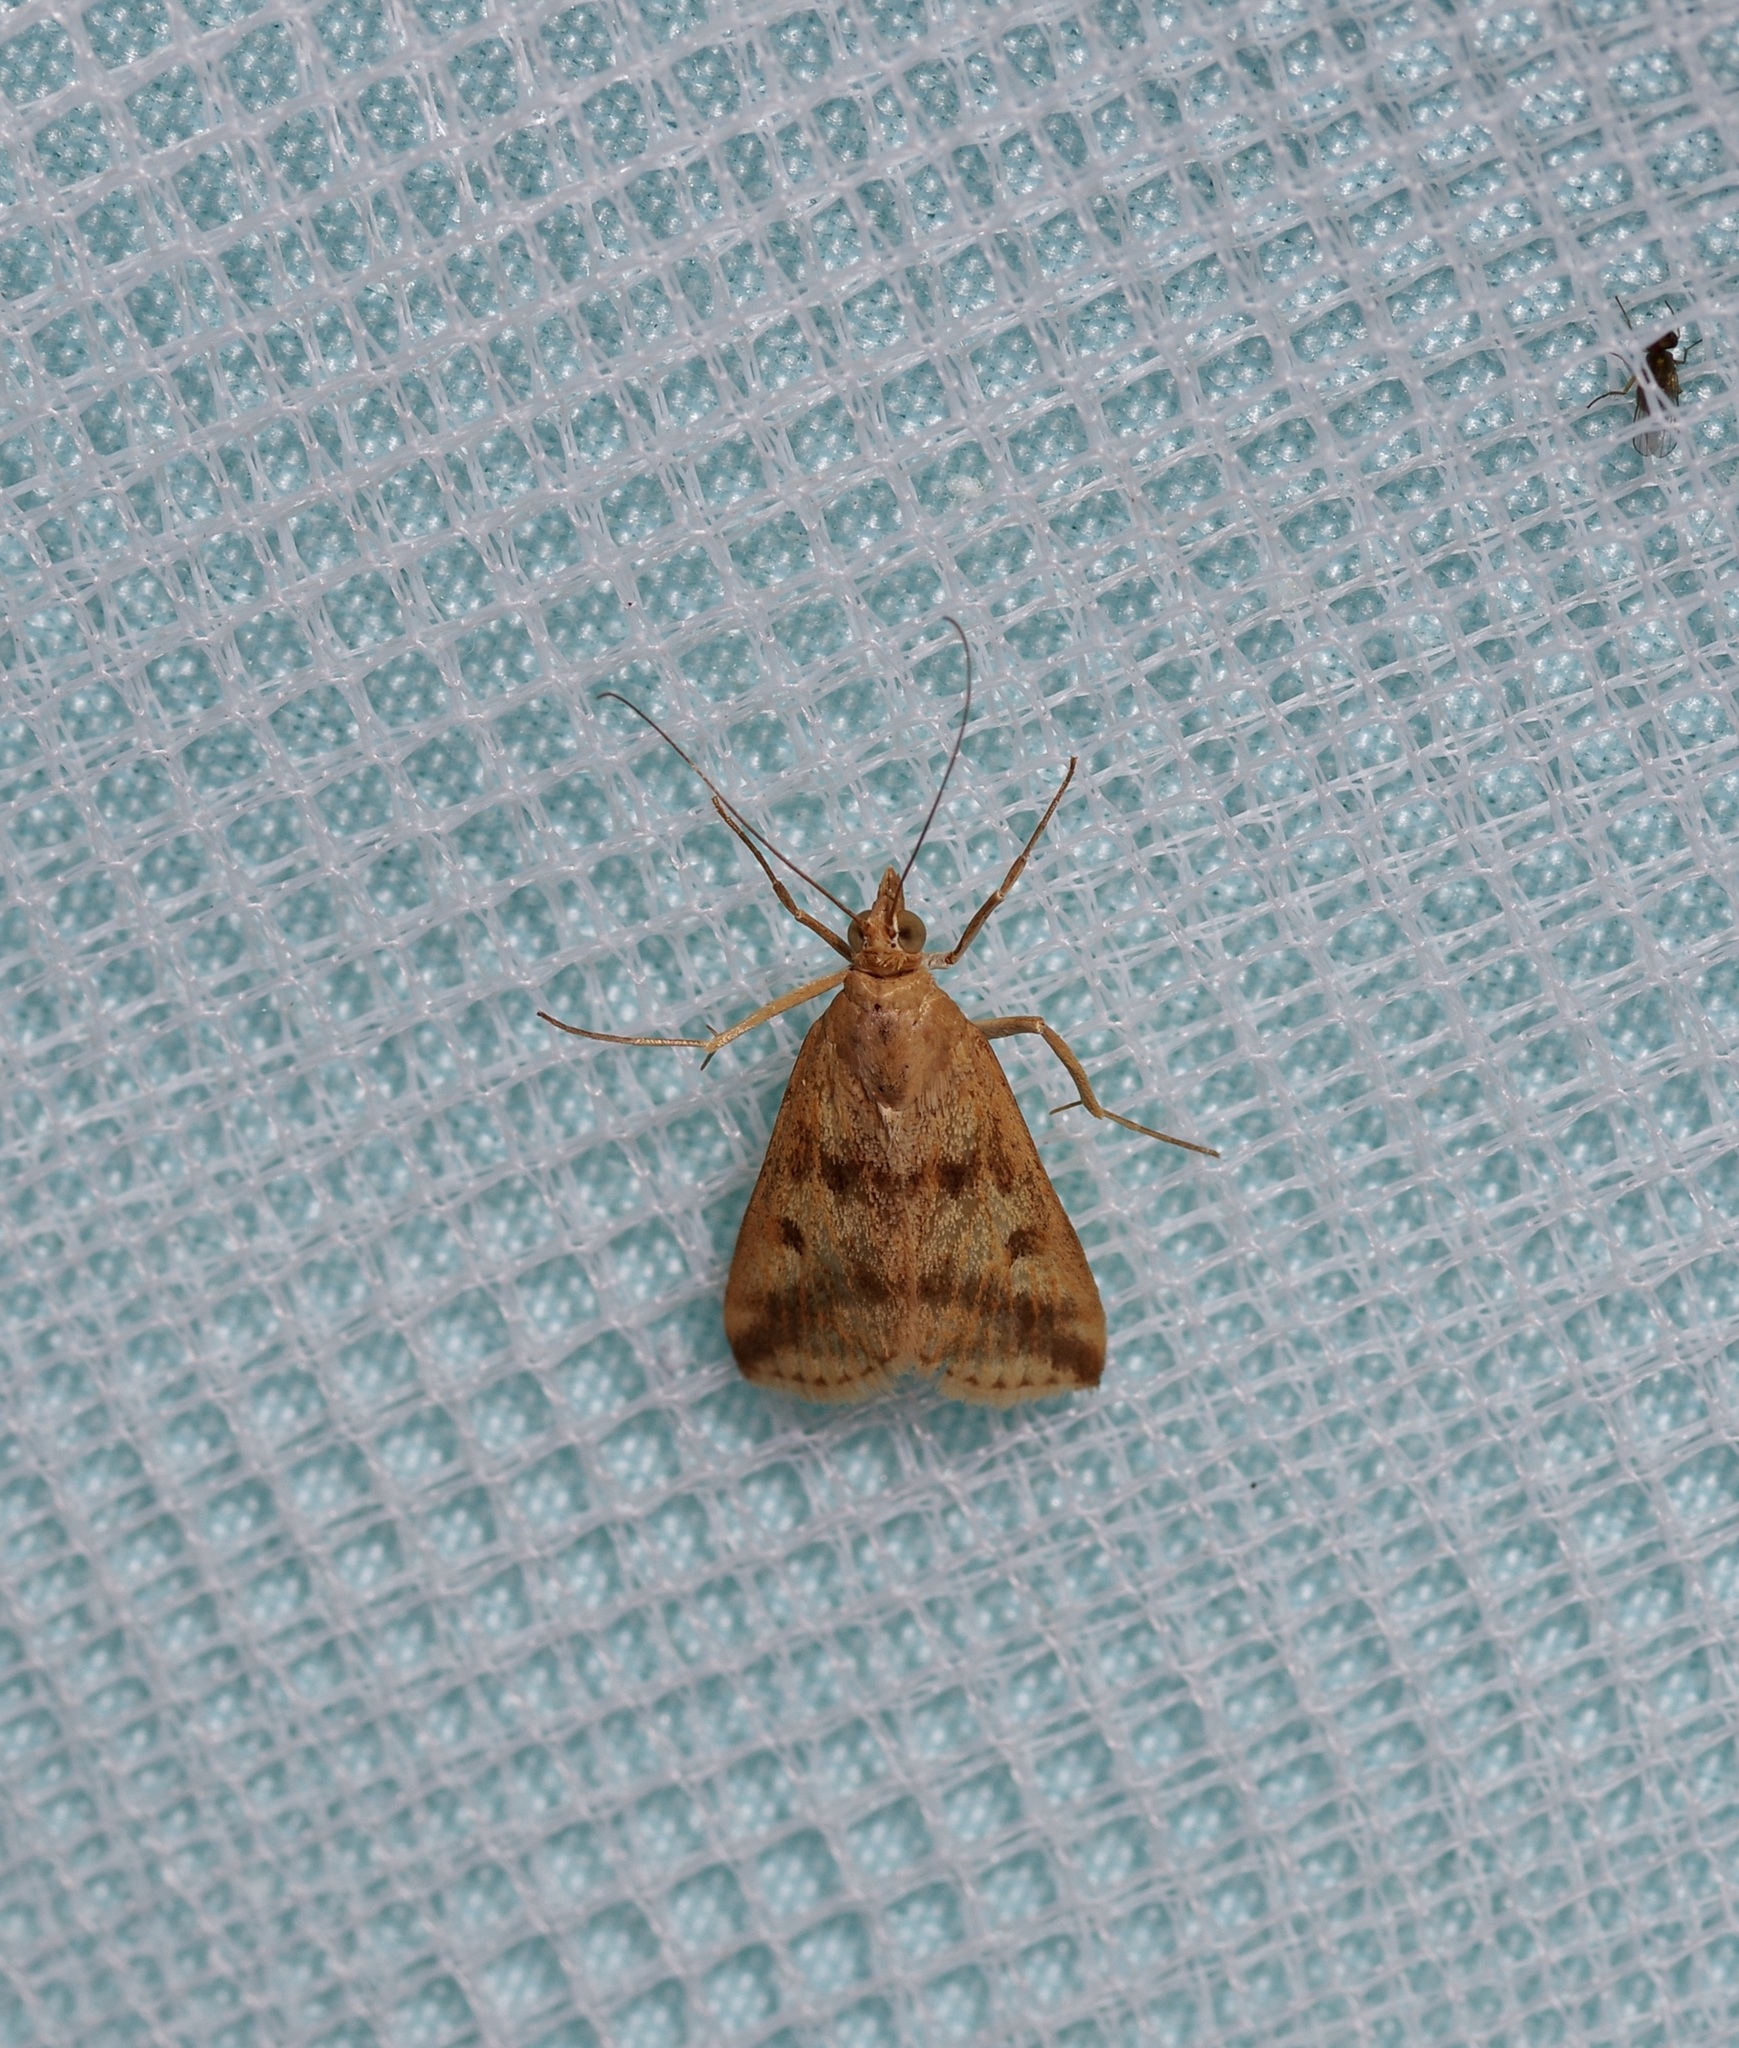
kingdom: Animalia
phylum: Arthropoda
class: Insecta
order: Lepidoptera
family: Crambidae
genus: Achyra
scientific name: Achyra bifidalis
